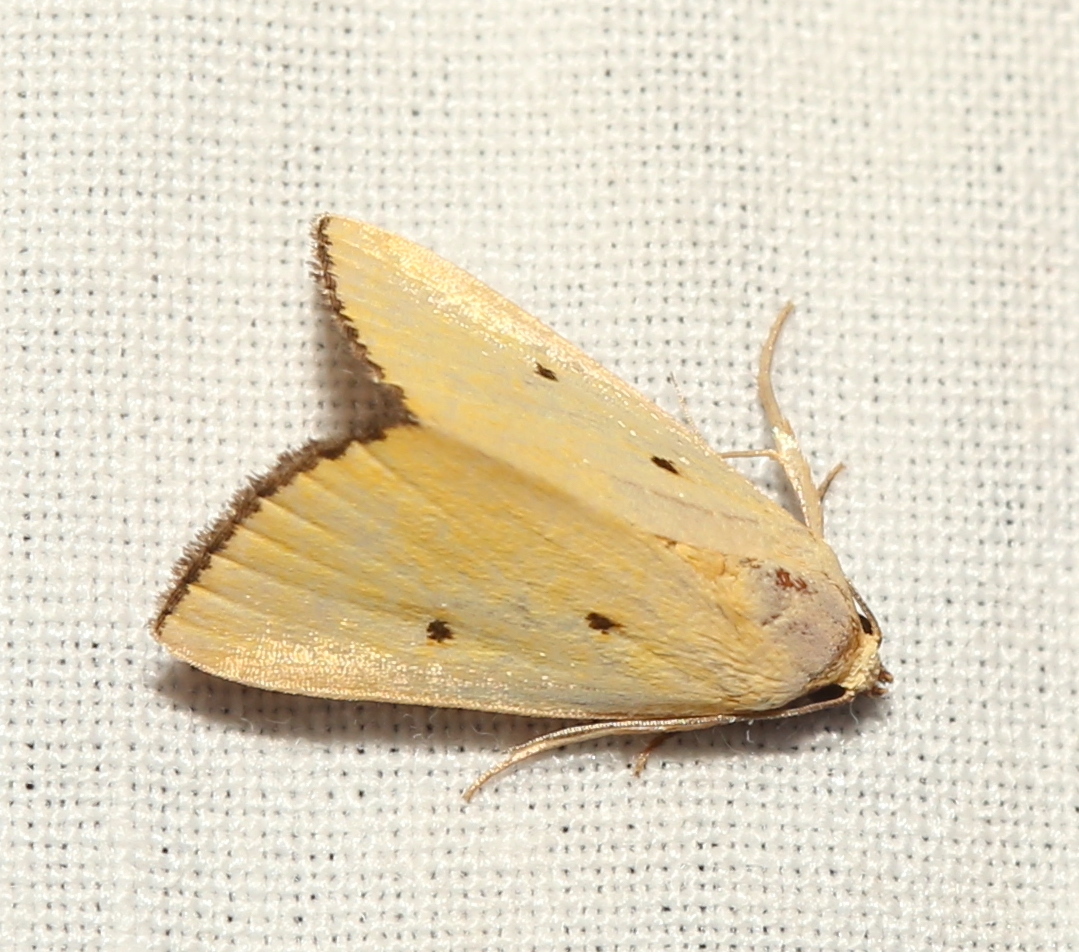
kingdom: Animalia
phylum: Arthropoda
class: Insecta
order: Lepidoptera
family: Noctuidae
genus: Marimatha
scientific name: Marimatha nigrofimbria
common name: Black-bordered lemon moth
